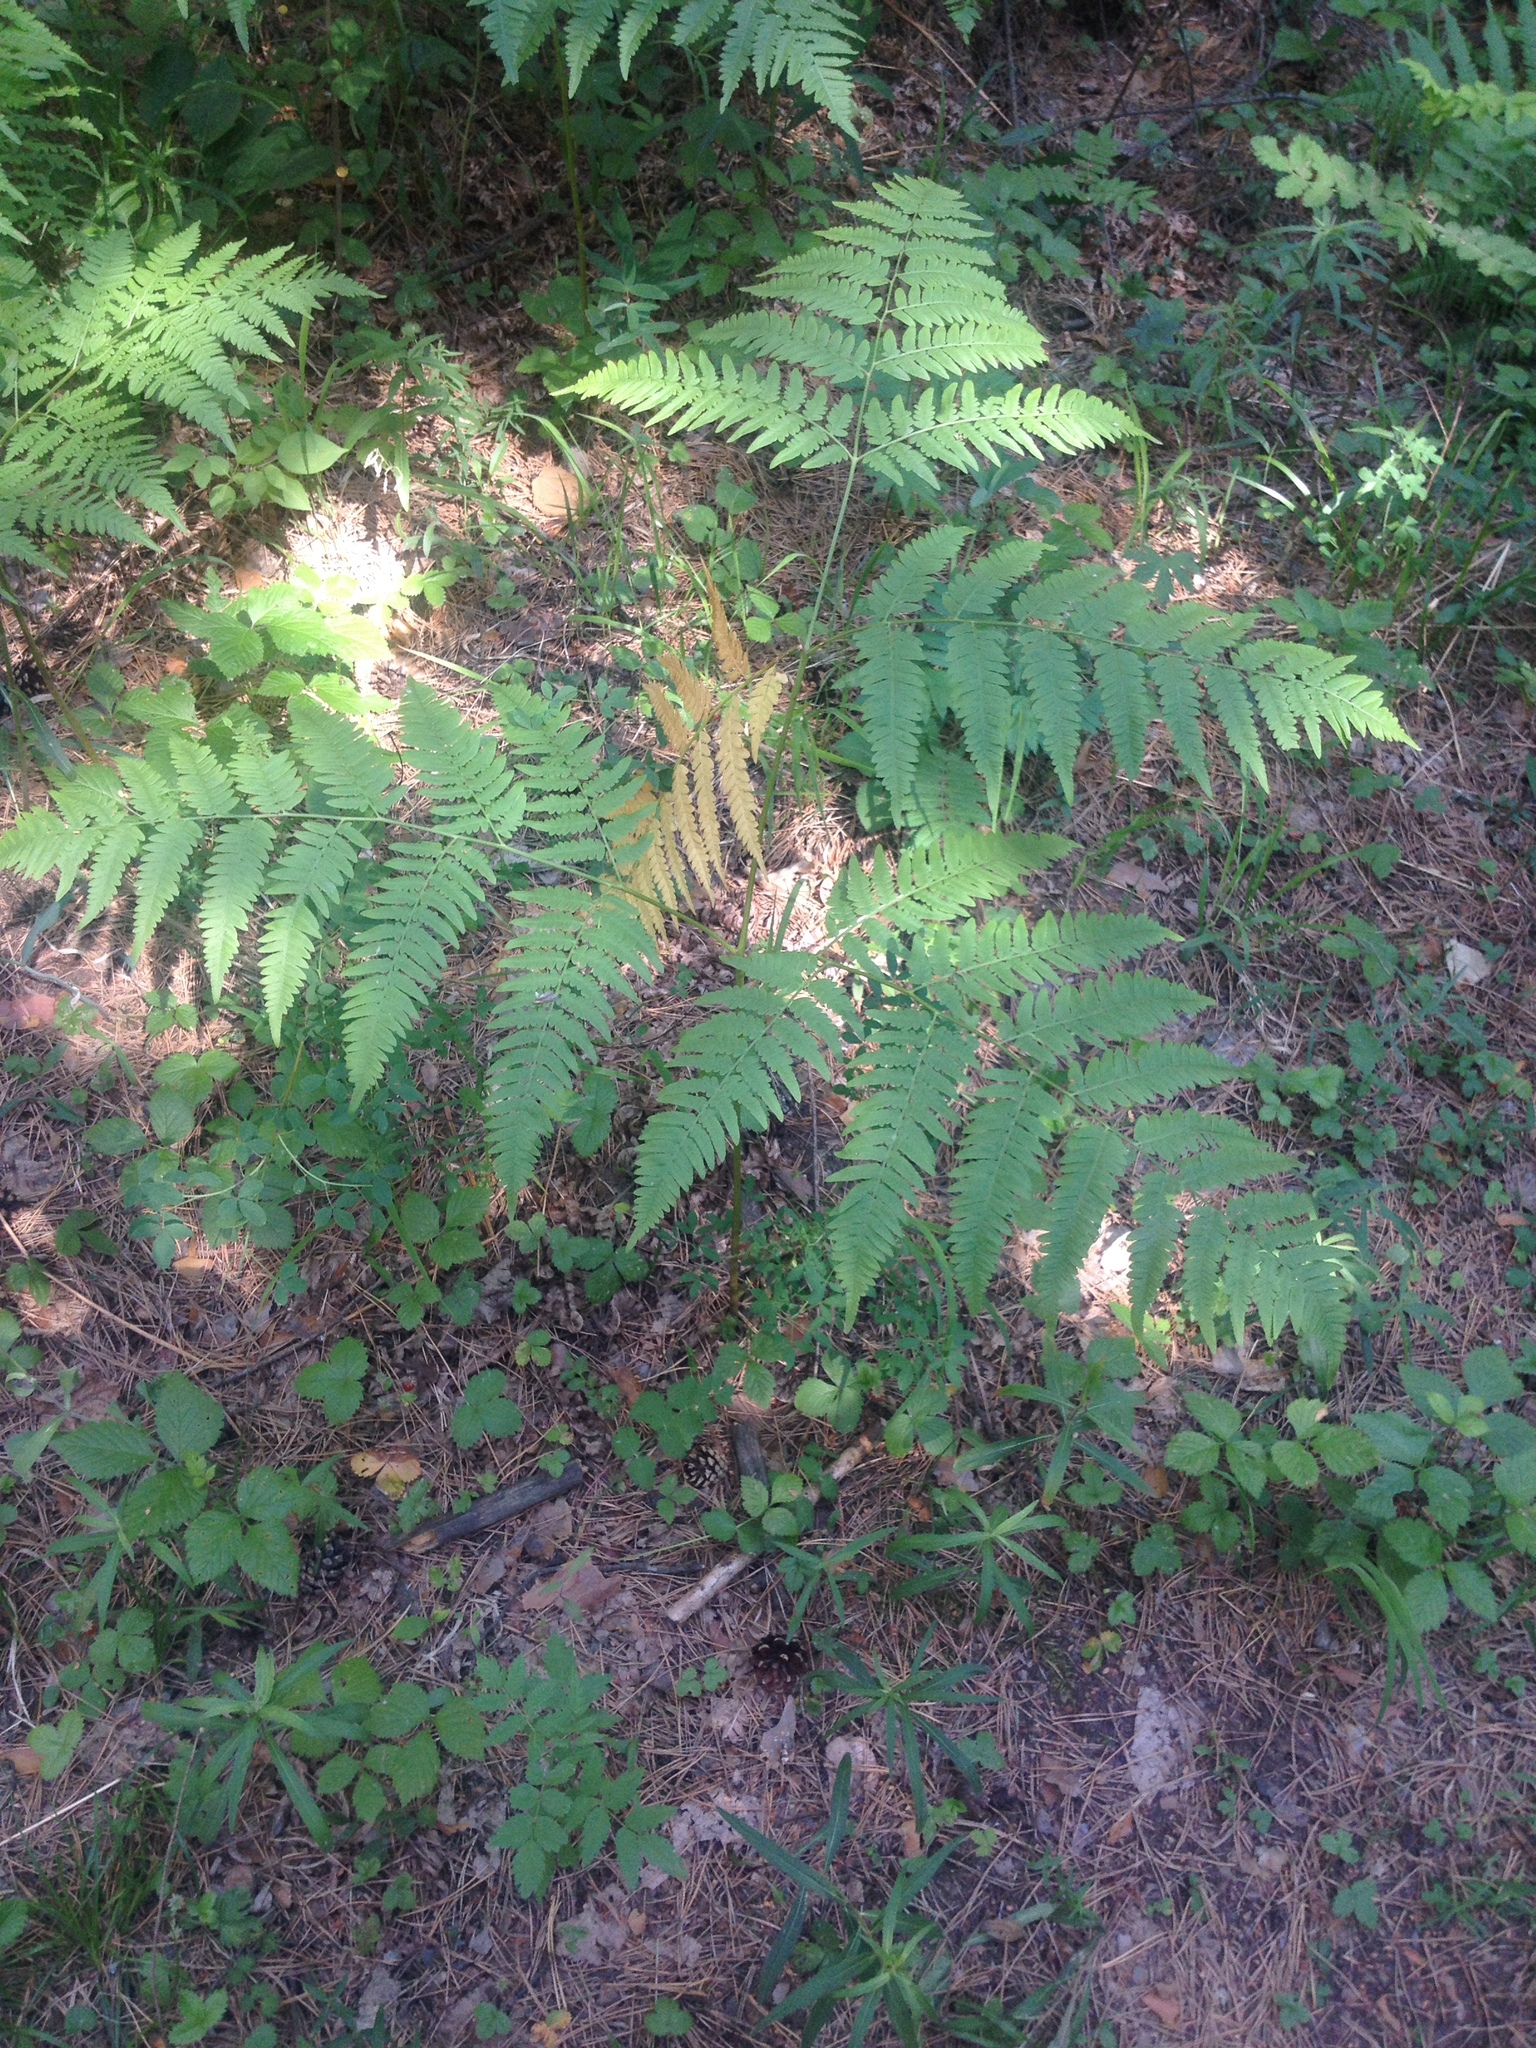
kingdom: Plantae
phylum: Tracheophyta
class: Polypodiopsida
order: Polypodiales
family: Dennstaedtiaceae
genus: Pteridium
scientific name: Pteridium aquilinum
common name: Bracken
